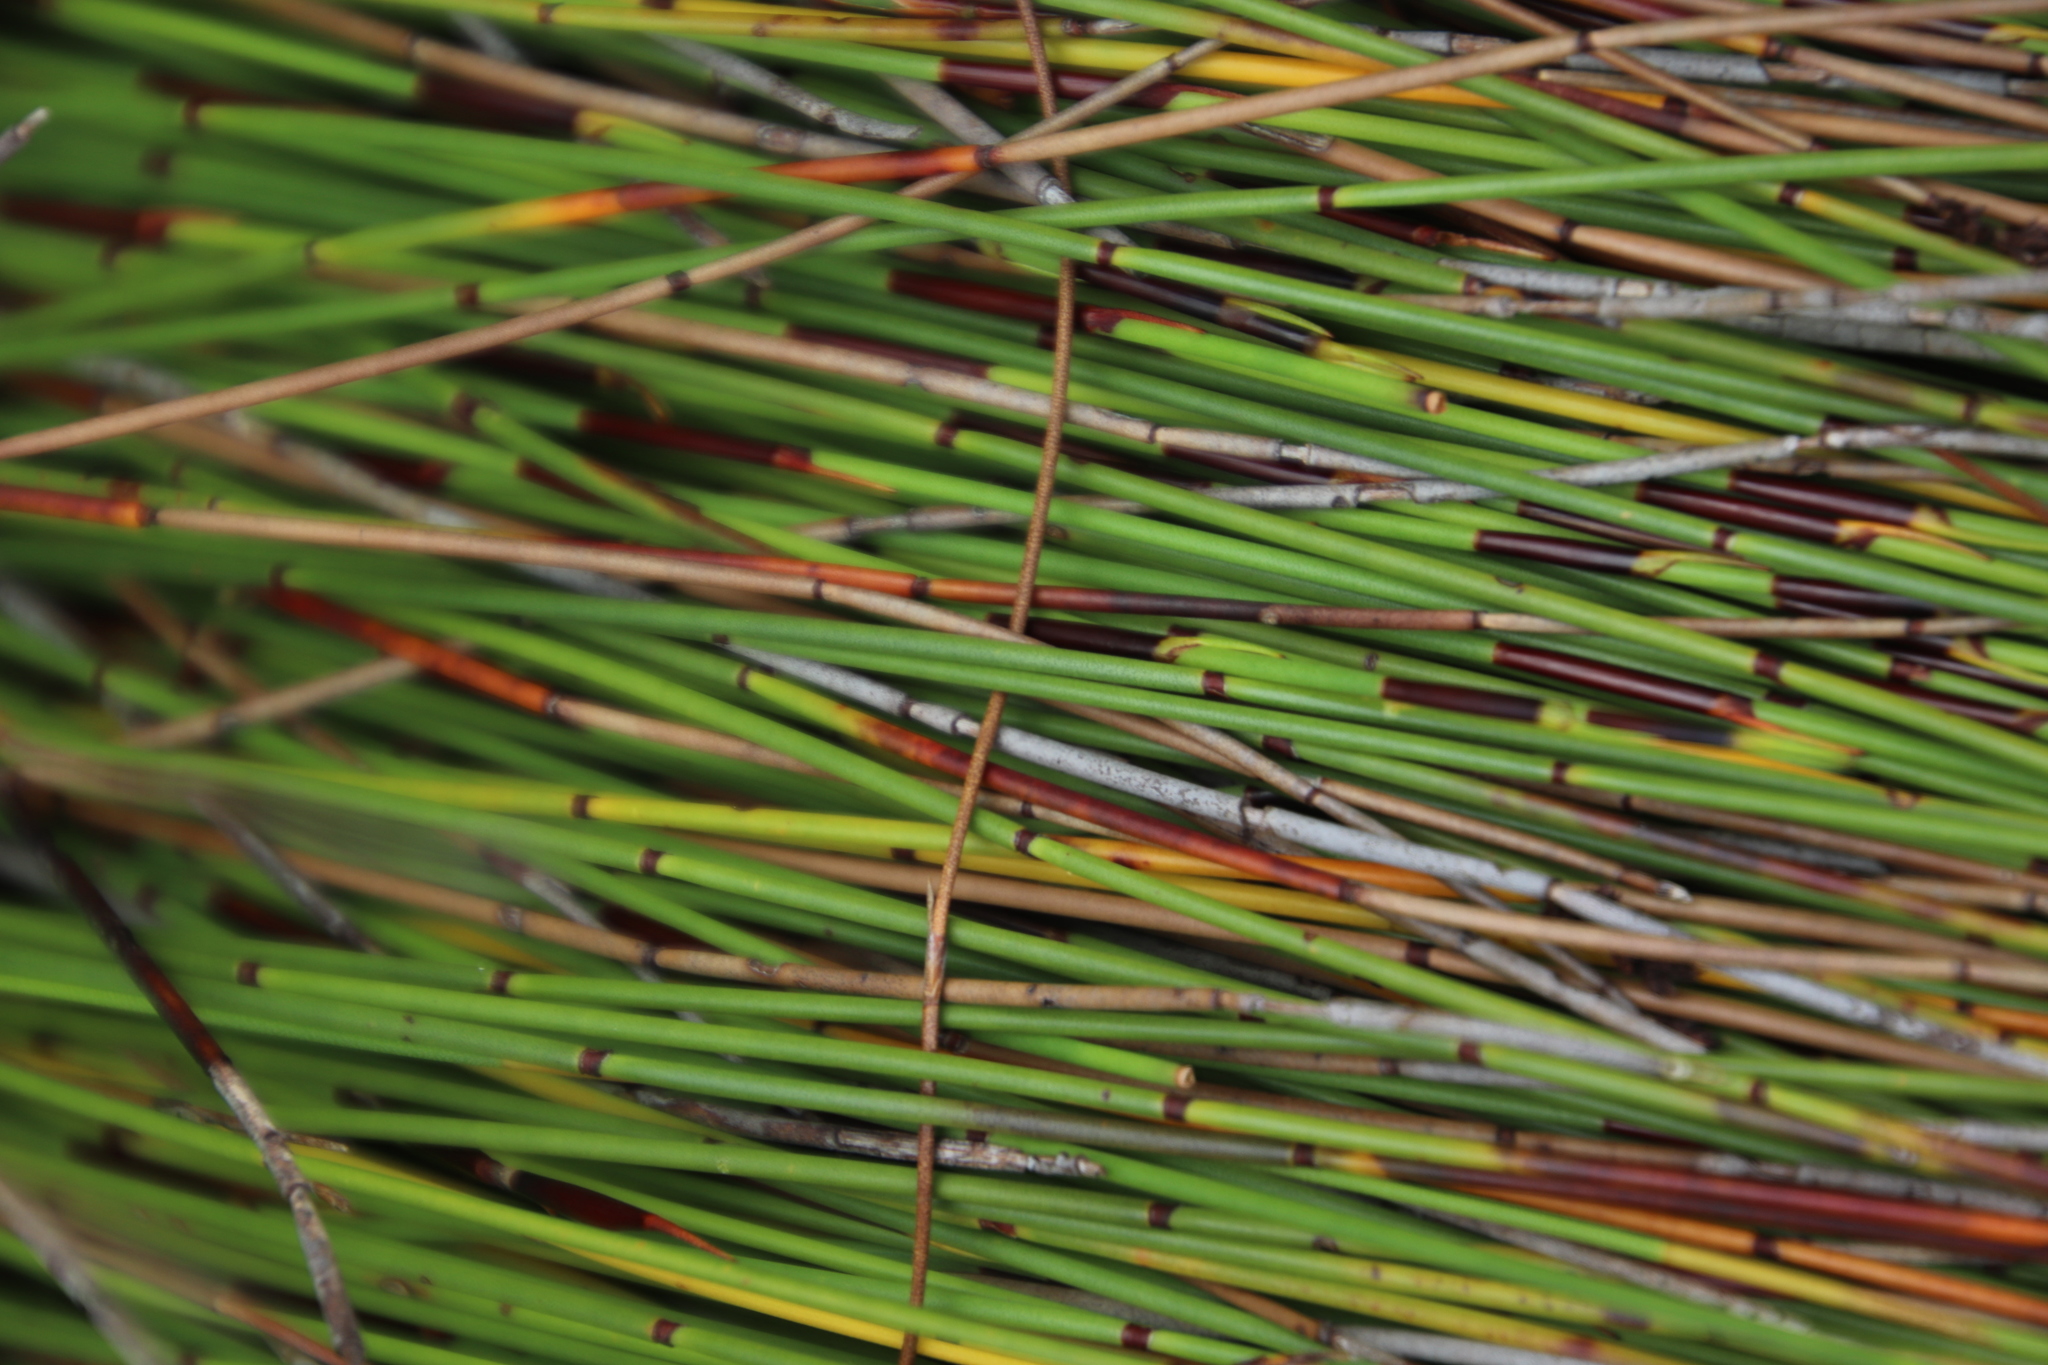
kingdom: Plantae
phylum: Tracheophyta
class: Liliopsida
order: Poales
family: Restionaceae
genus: Elegia
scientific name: Elegia nuda
